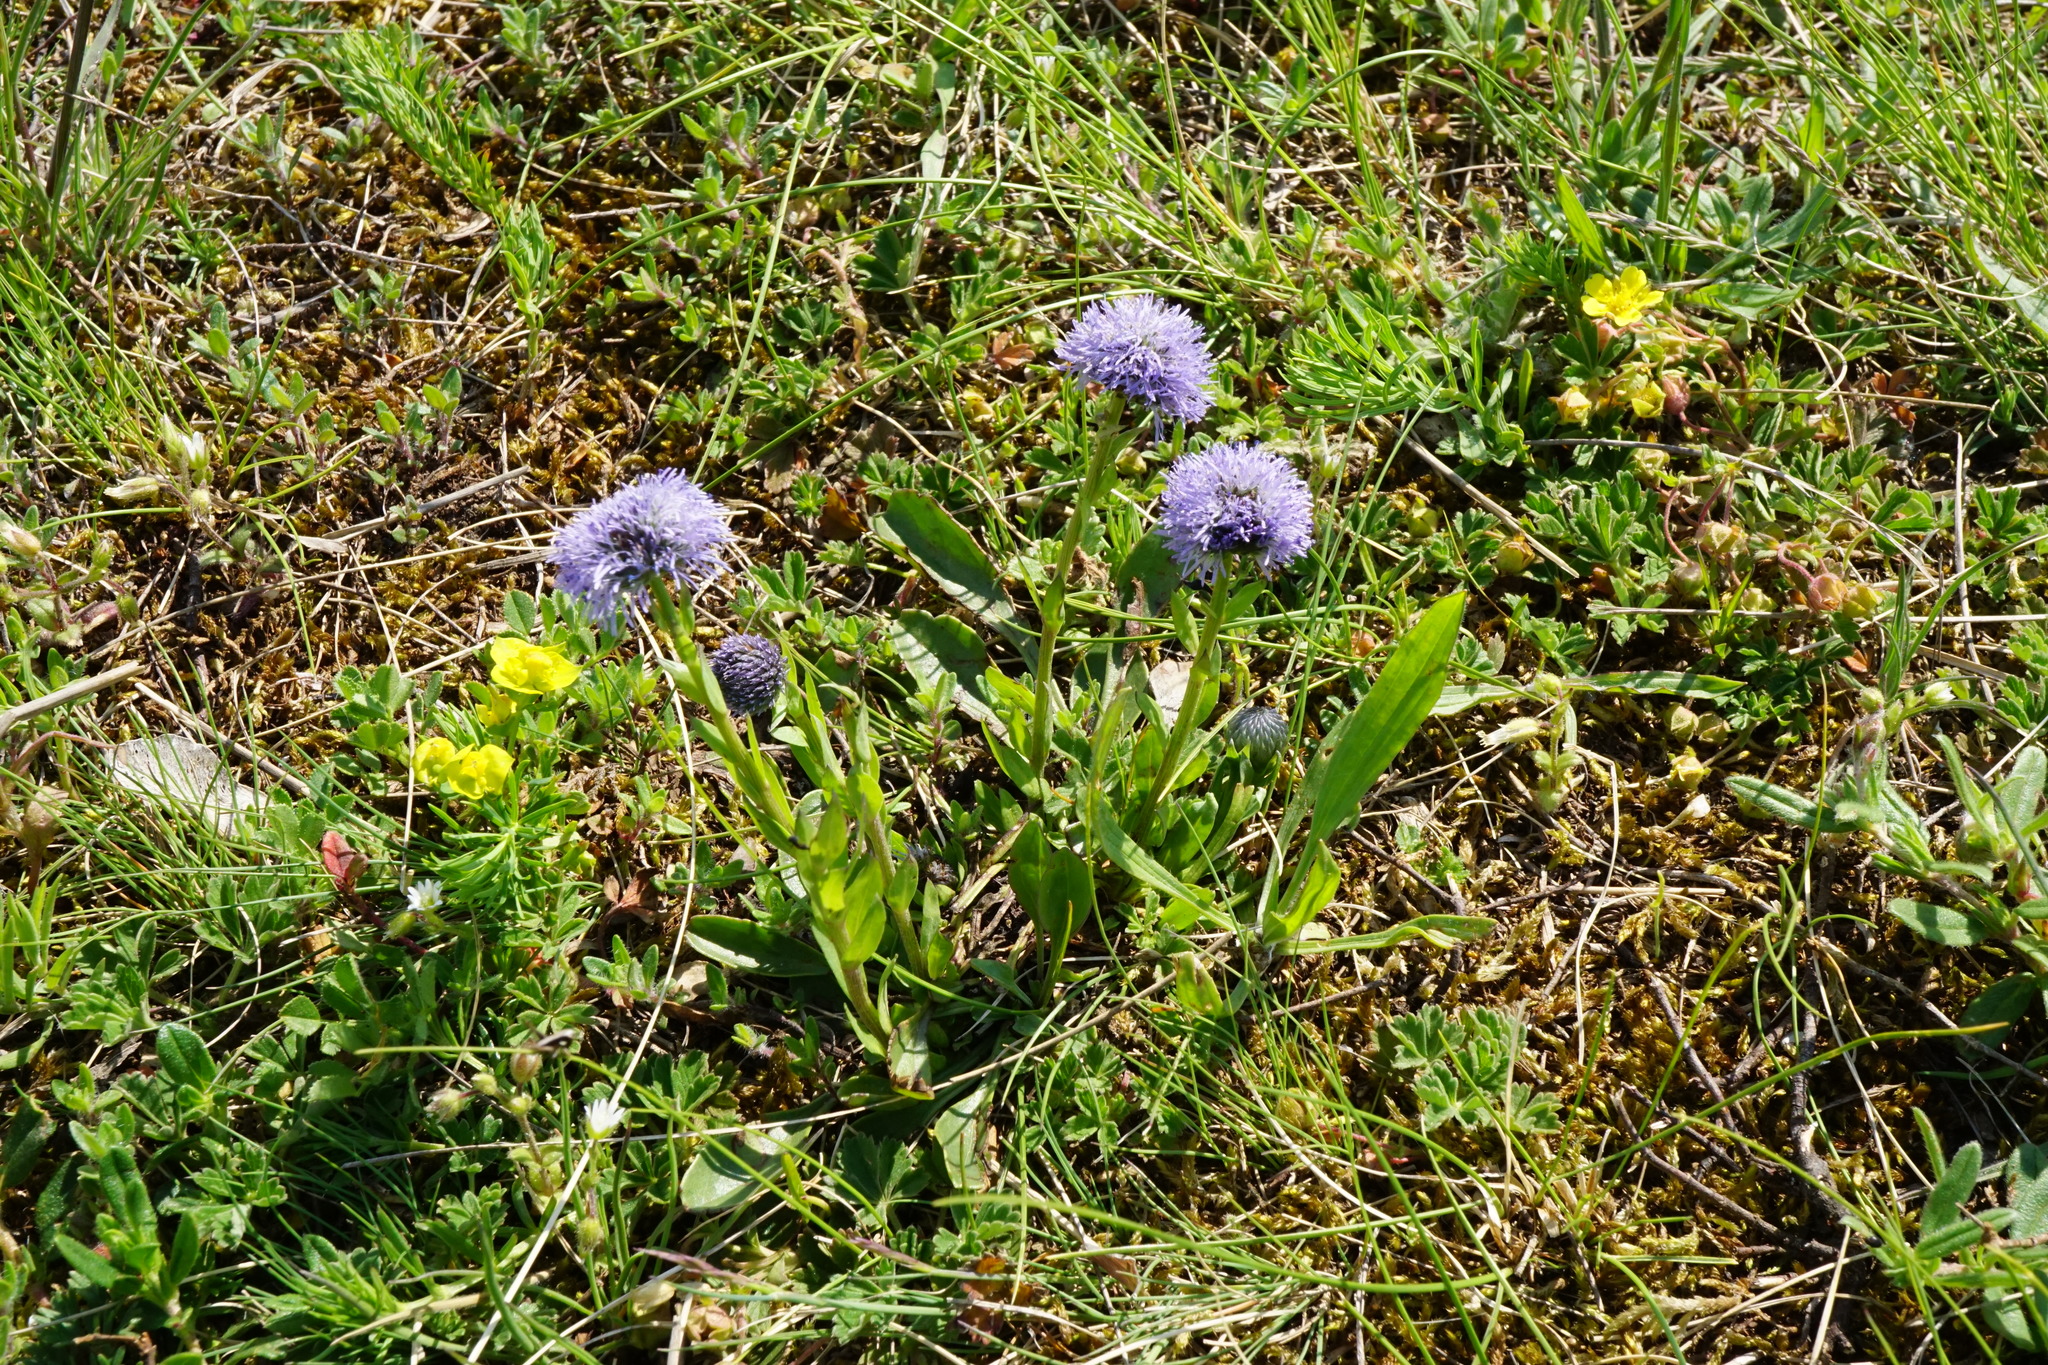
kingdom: Plantae
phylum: Tracheophyta
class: Magnoliopsida
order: Lamiales
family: Plantaginaceae
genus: Globularia
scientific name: Globularia bisnagarica
